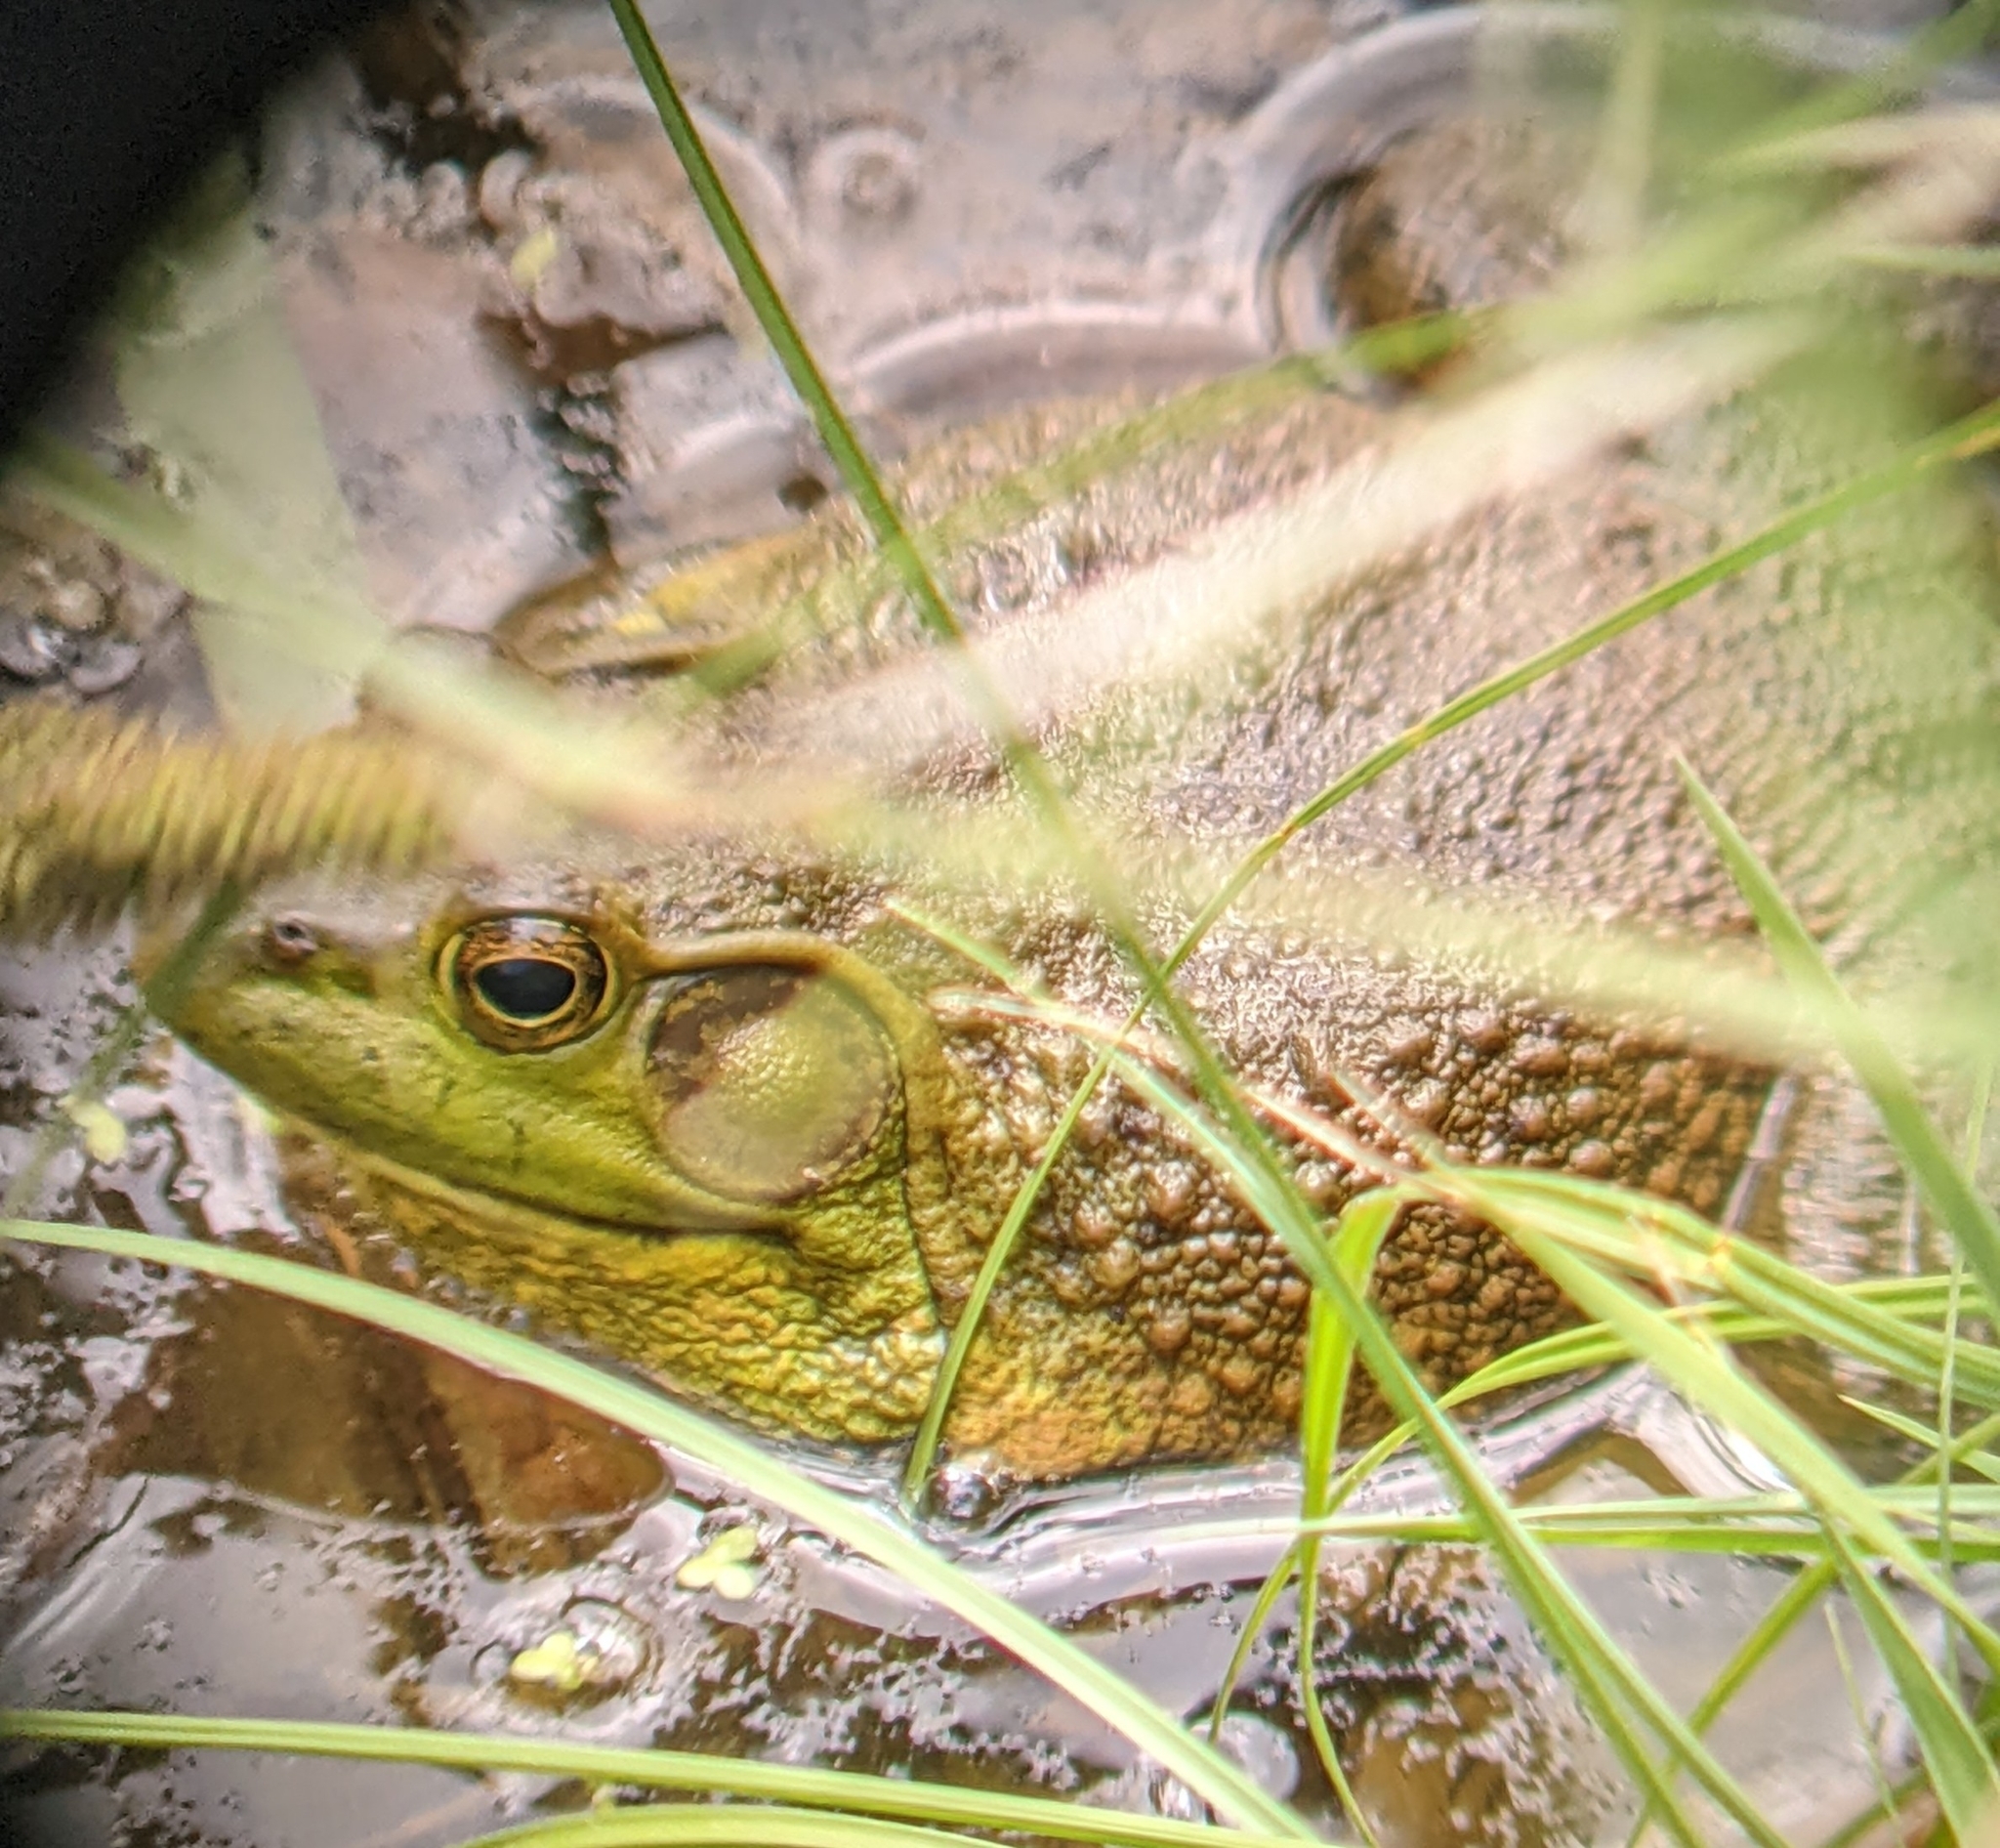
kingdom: Animalia
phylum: Chordata
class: Amphibia
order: Anura
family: Ranidae
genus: Lithobates
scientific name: Lithobates catesbeianus
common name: American bullfrog
